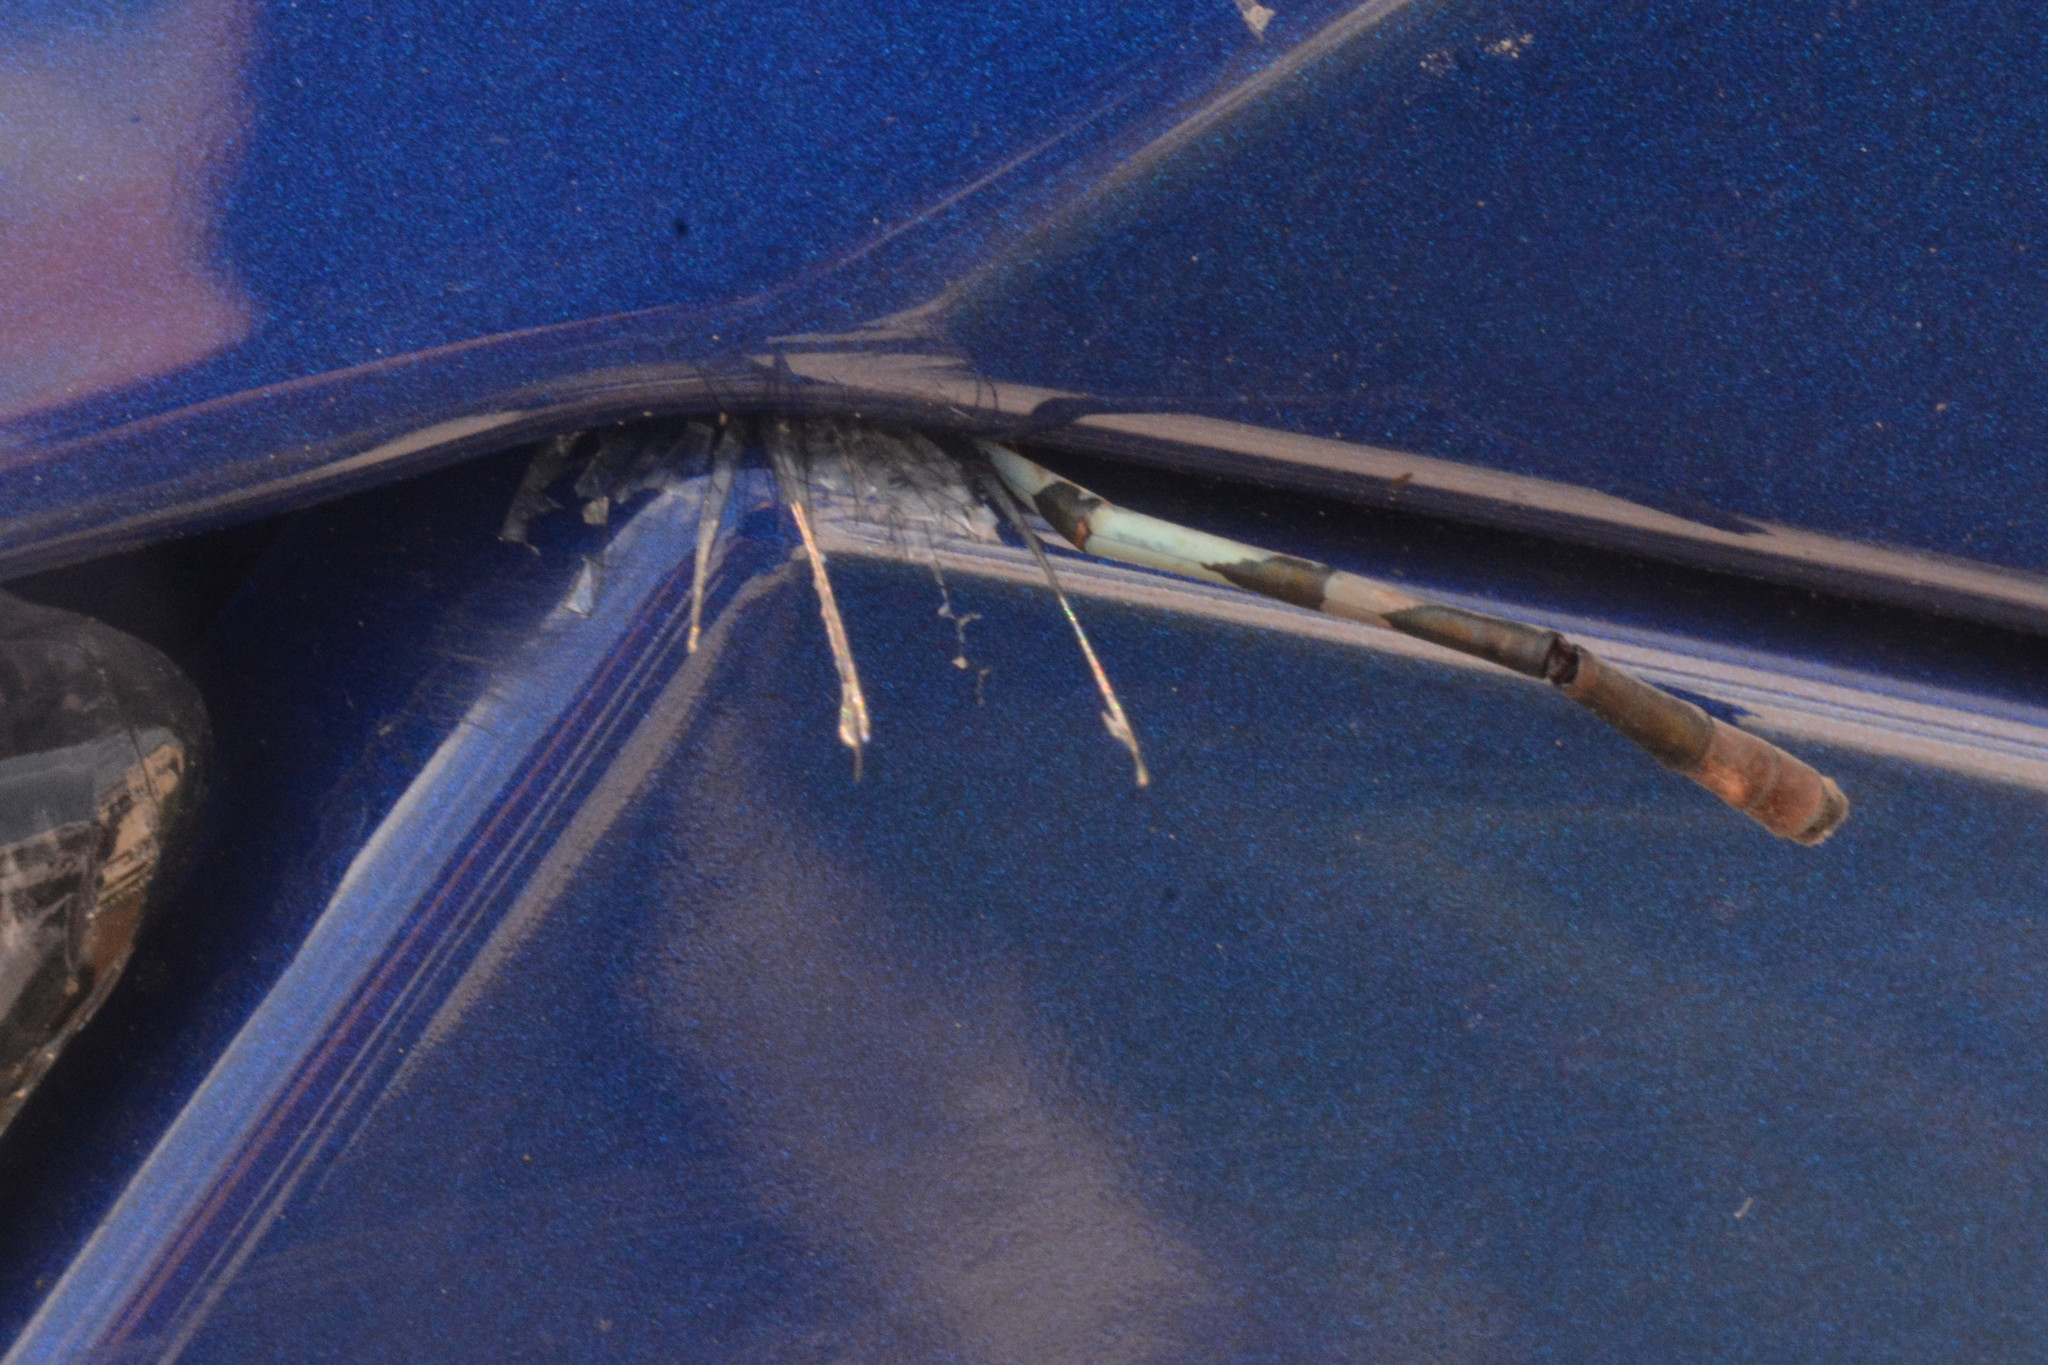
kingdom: Animalia
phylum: Arthropoda
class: Insecta
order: Odonata
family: Coenagrionidae
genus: Enallagma
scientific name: Enallagma cyathigerum
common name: Common blue damselfly
